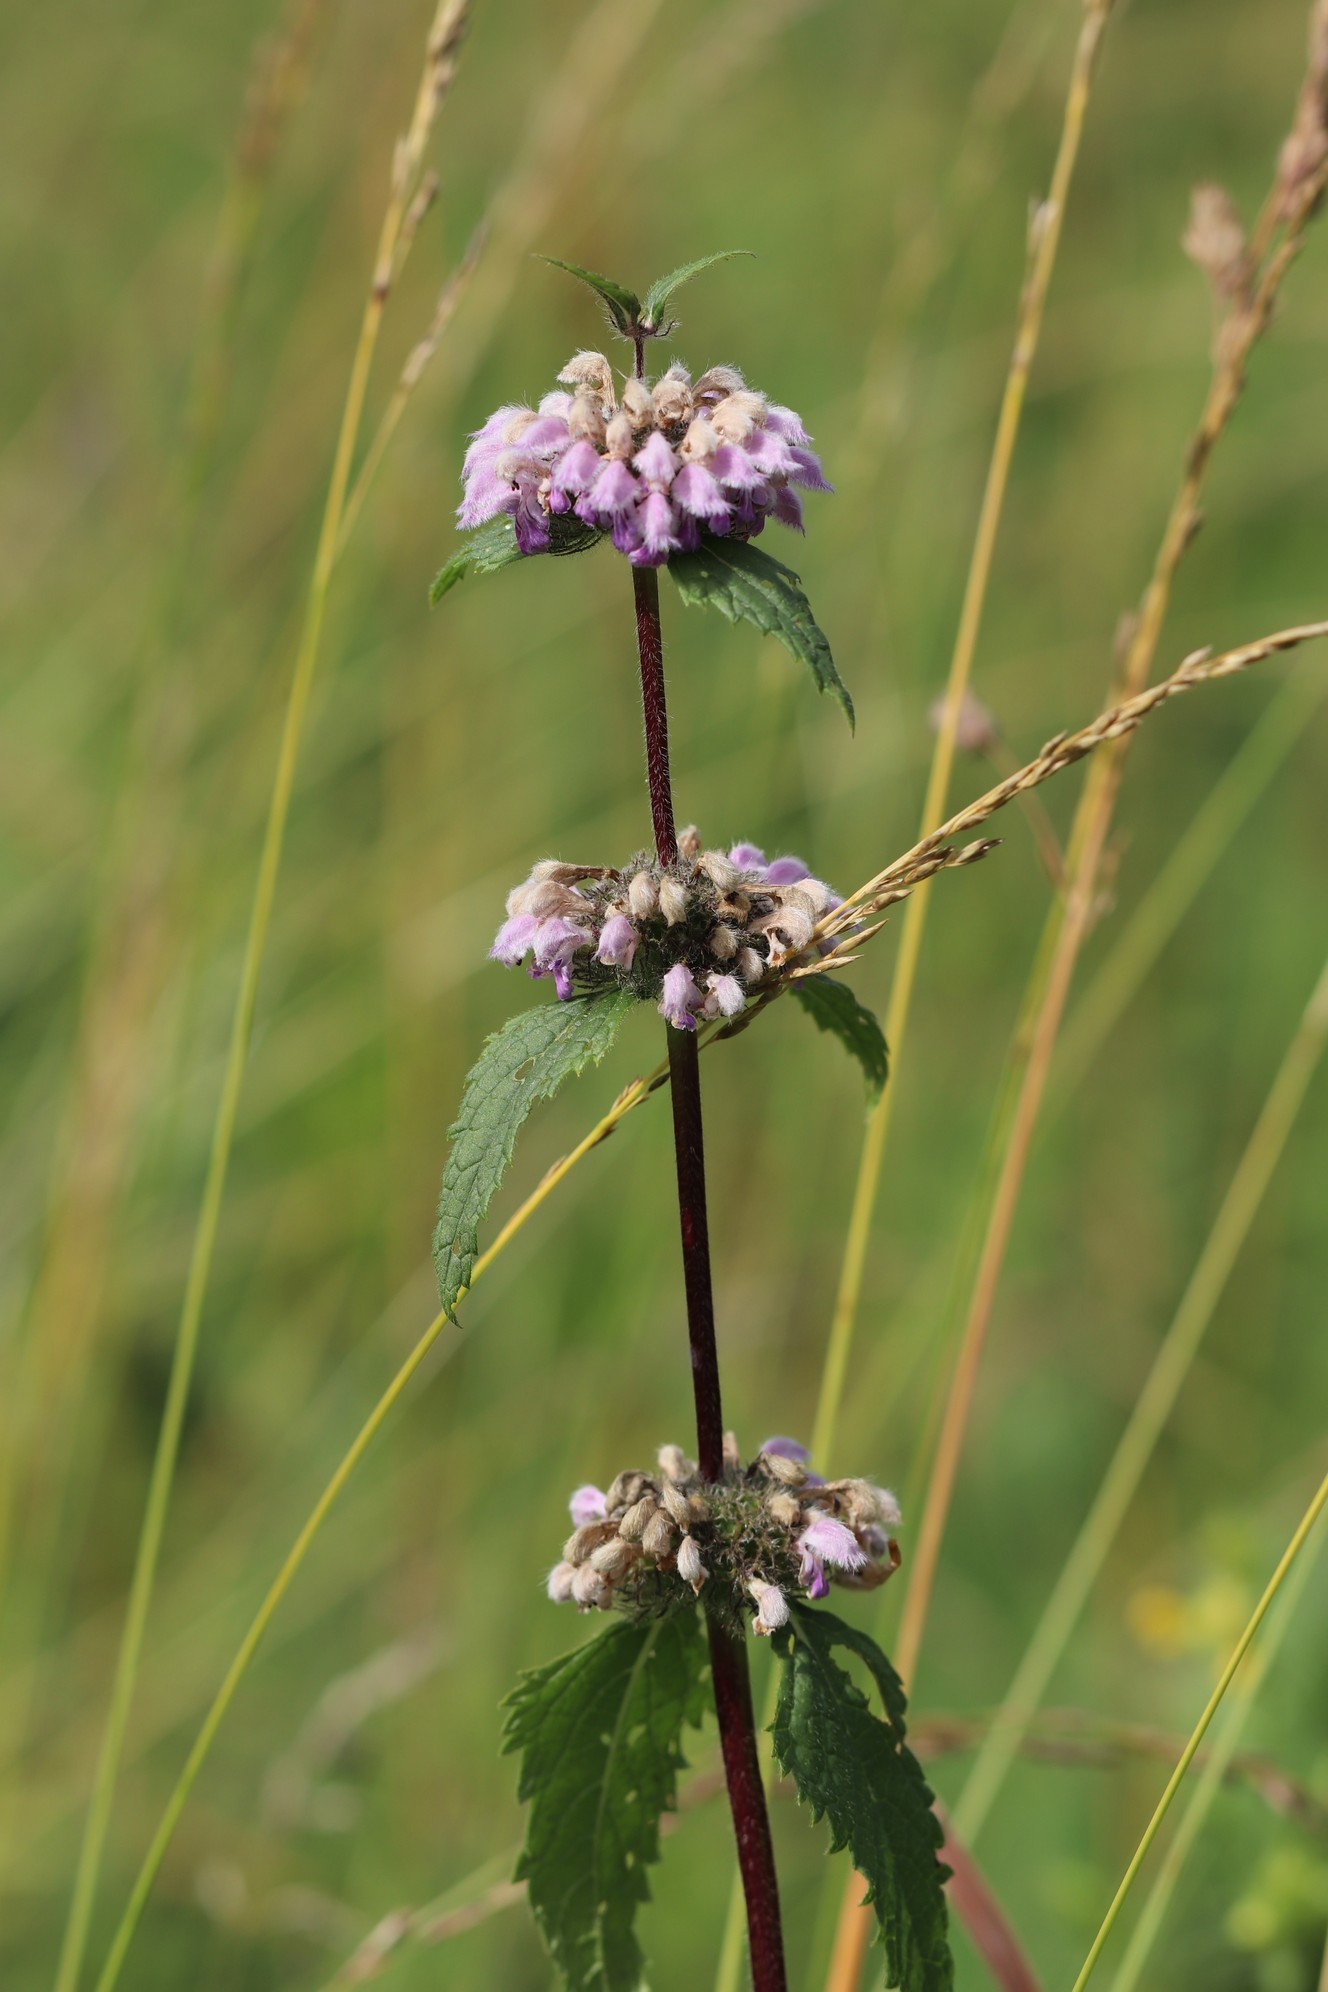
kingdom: Plantae
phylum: Tracheophyta
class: Magnoliopsida
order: Lamiales
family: Lamiaceae
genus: Phlomoides
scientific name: Phlomoides tuberosa
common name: Tuberous jerusalem sage
